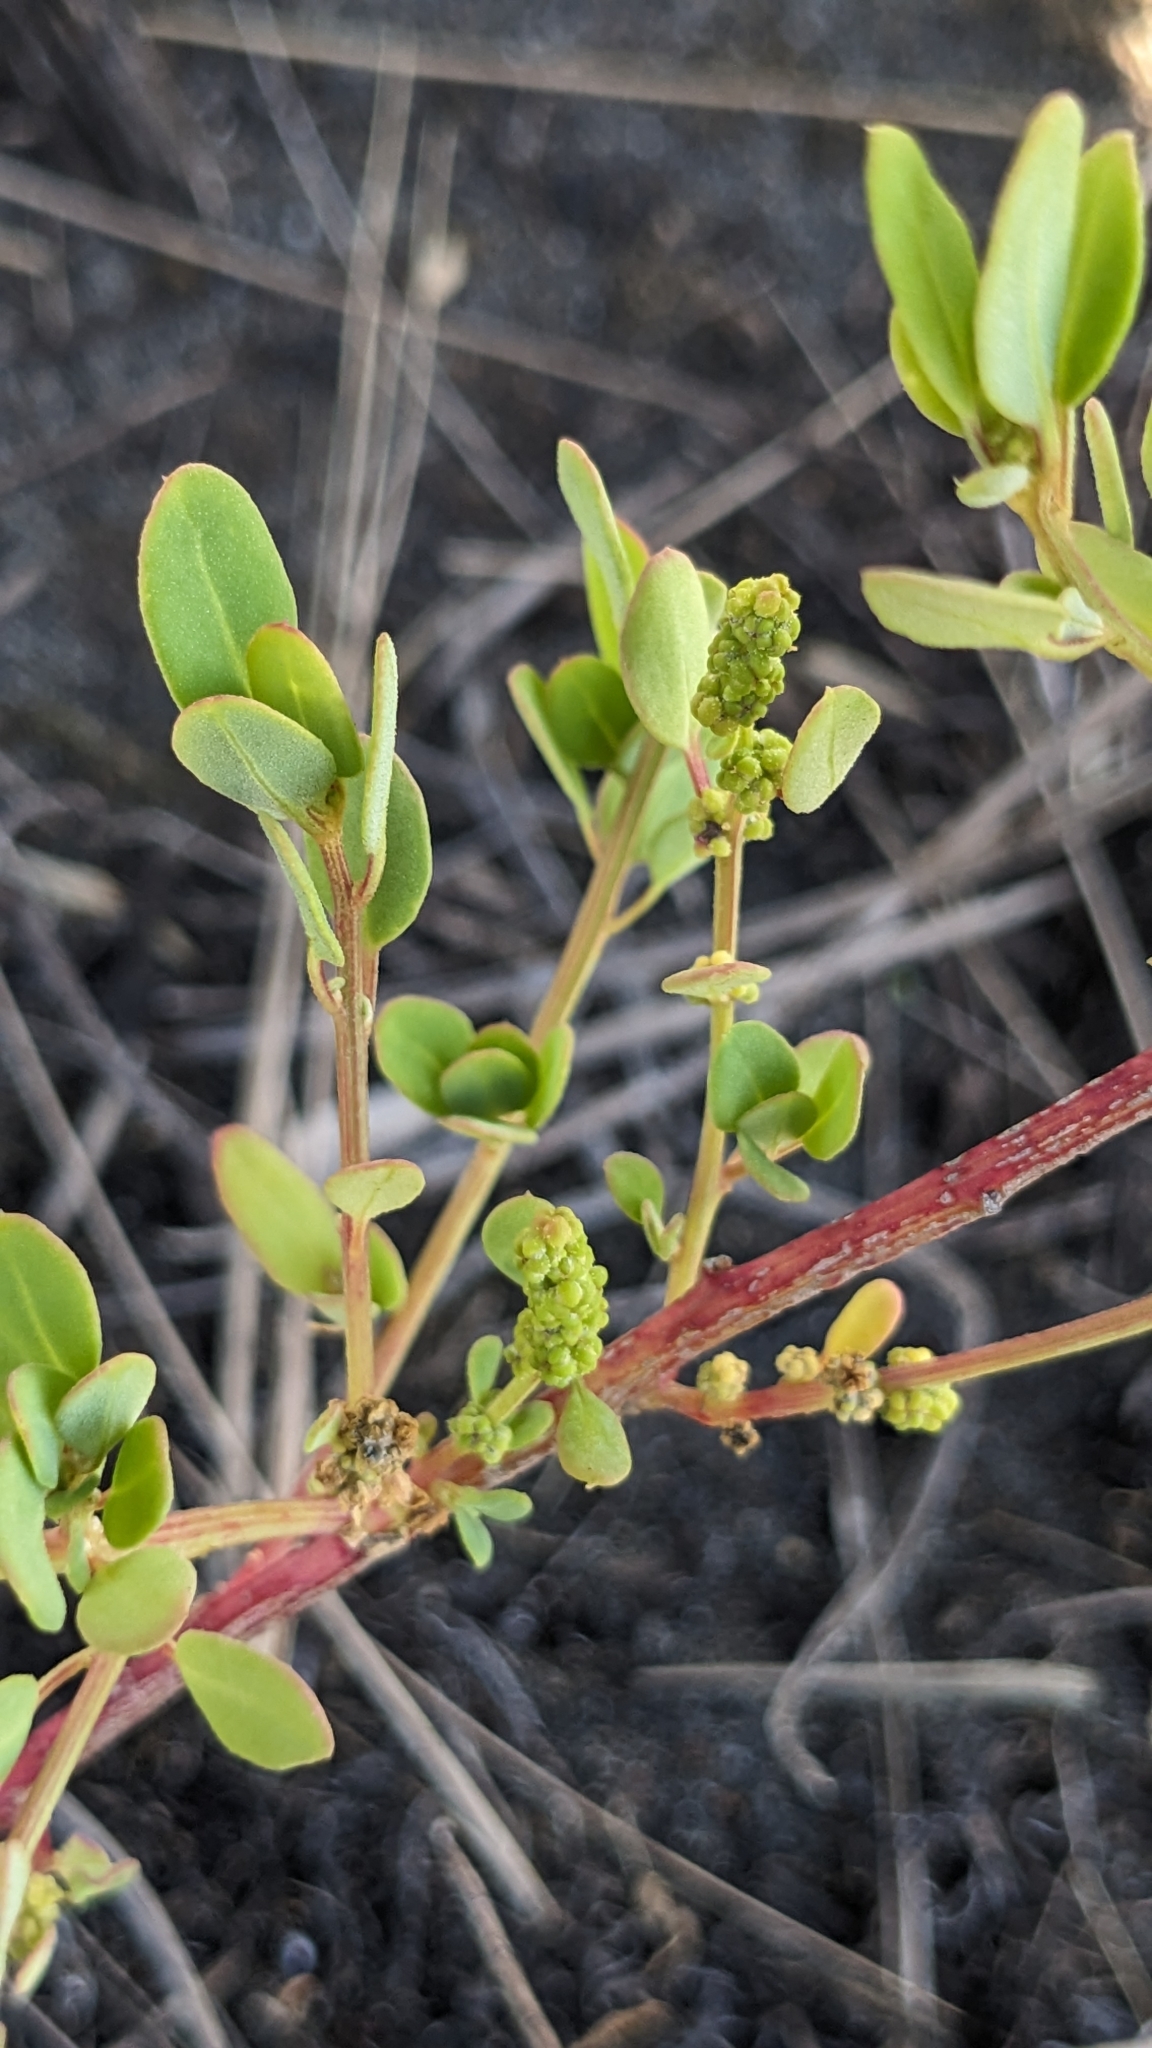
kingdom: Plantae
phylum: Tracheophyta
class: Magnoliopsida
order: Caryophyllales
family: Amaranthaceae
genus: Chenopodium
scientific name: Chenopodium acuminatum
